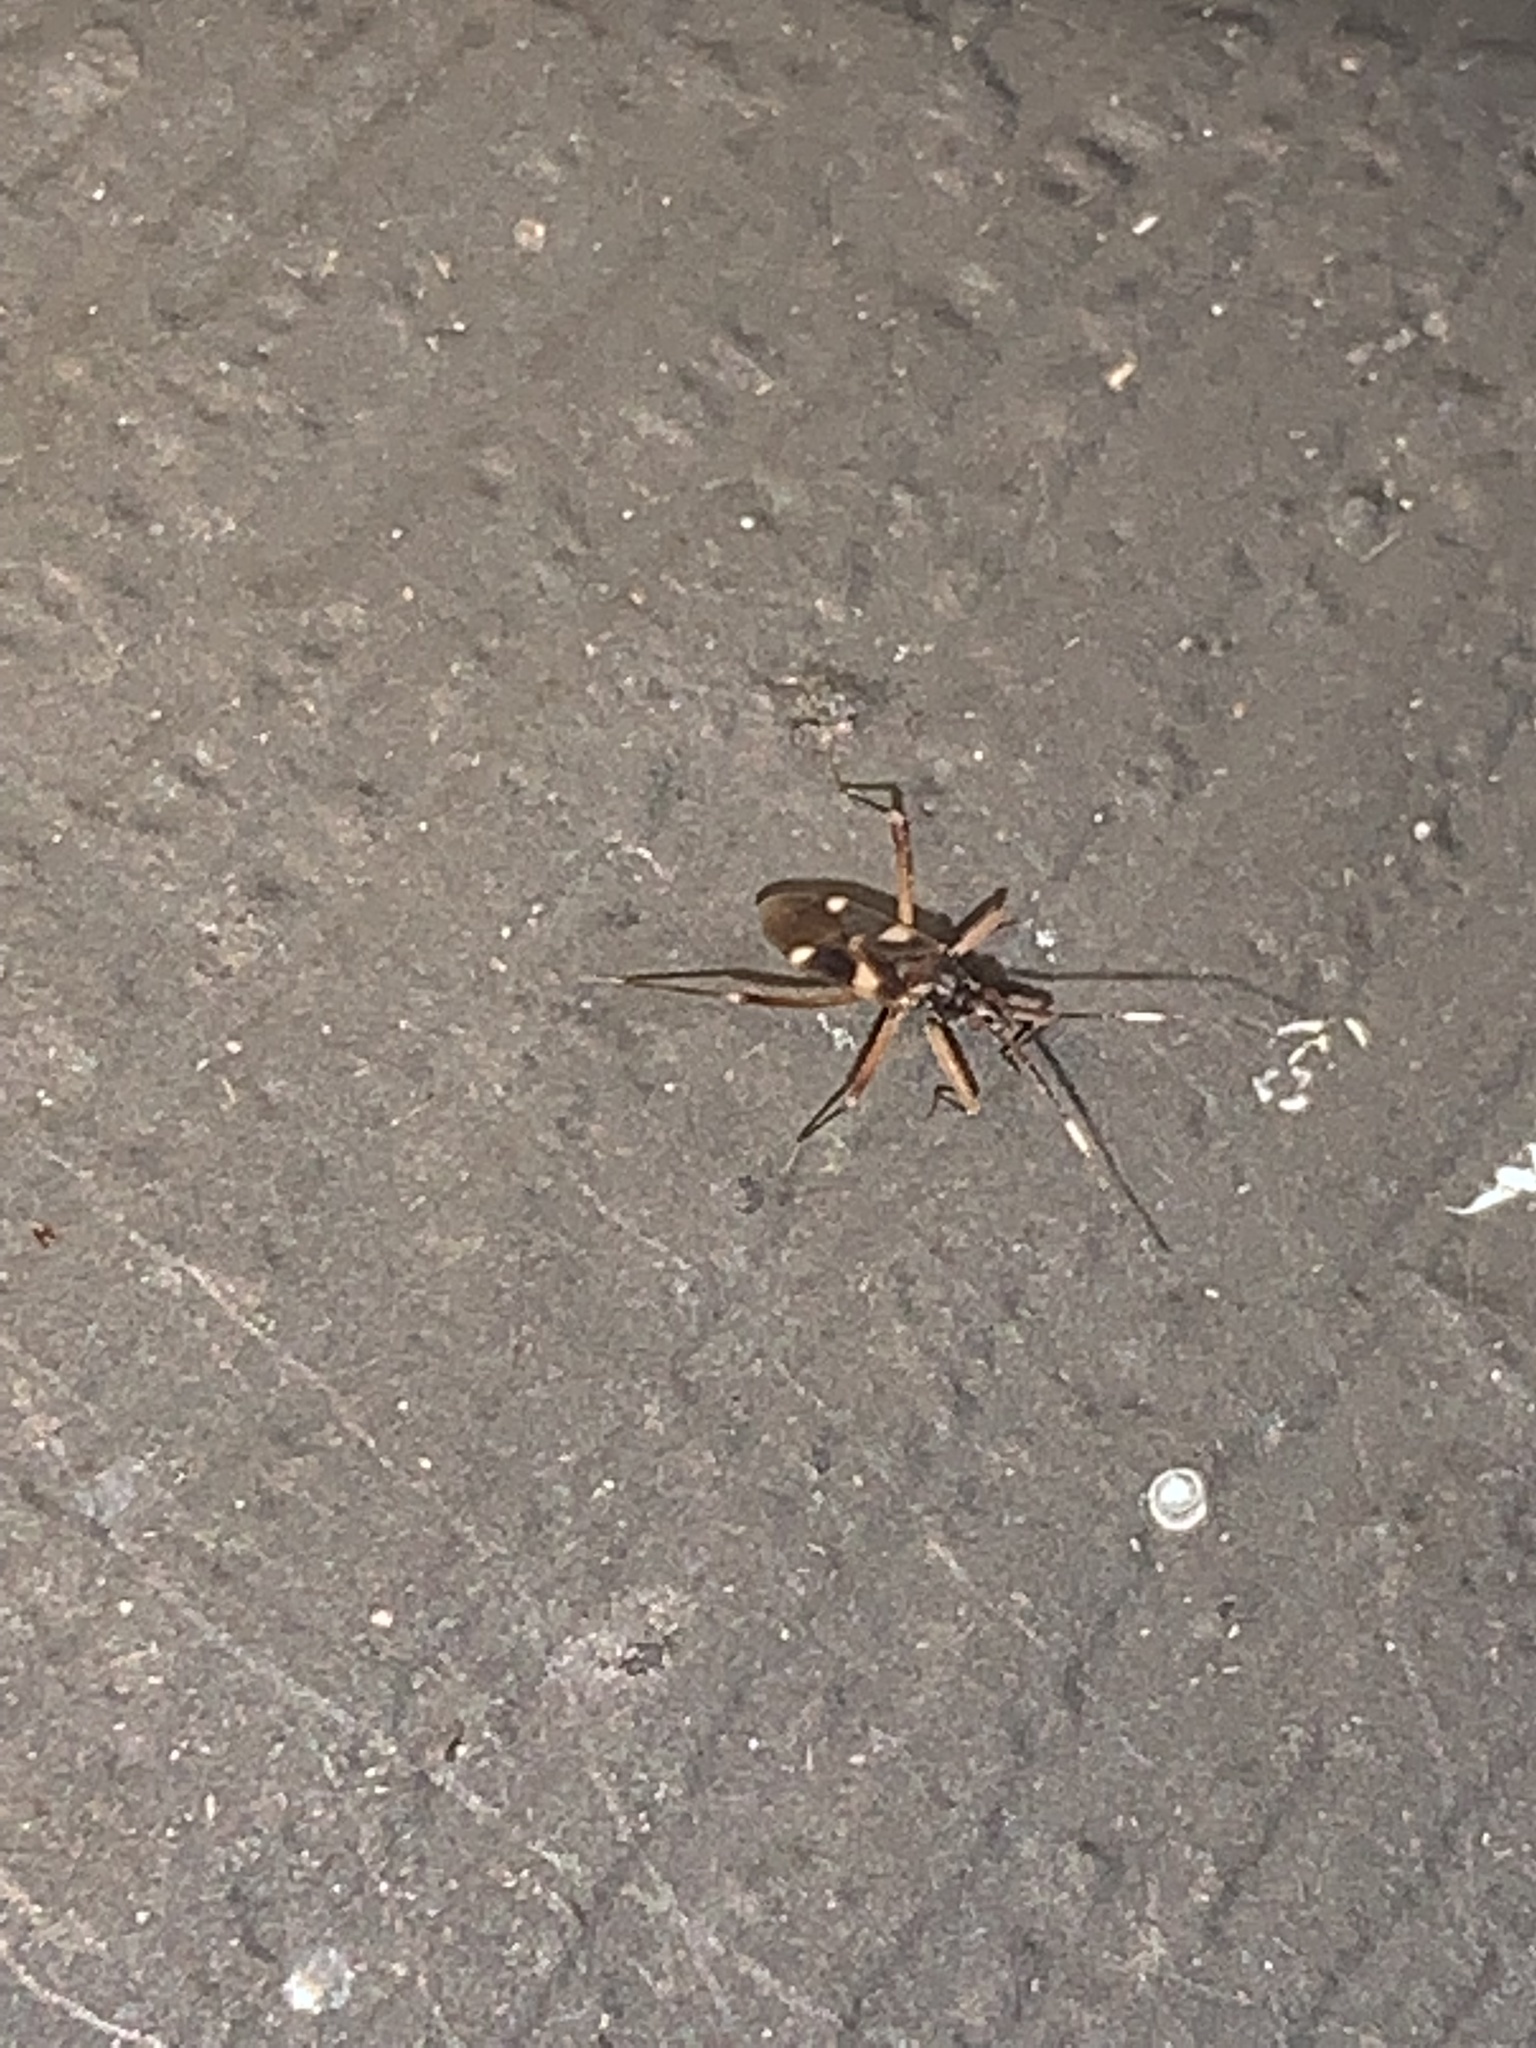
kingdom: Animalia
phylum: Arthropoda
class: Insecta
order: Hemiptera
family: Miridae
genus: Fulvius
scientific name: Fulvius imbecilis
